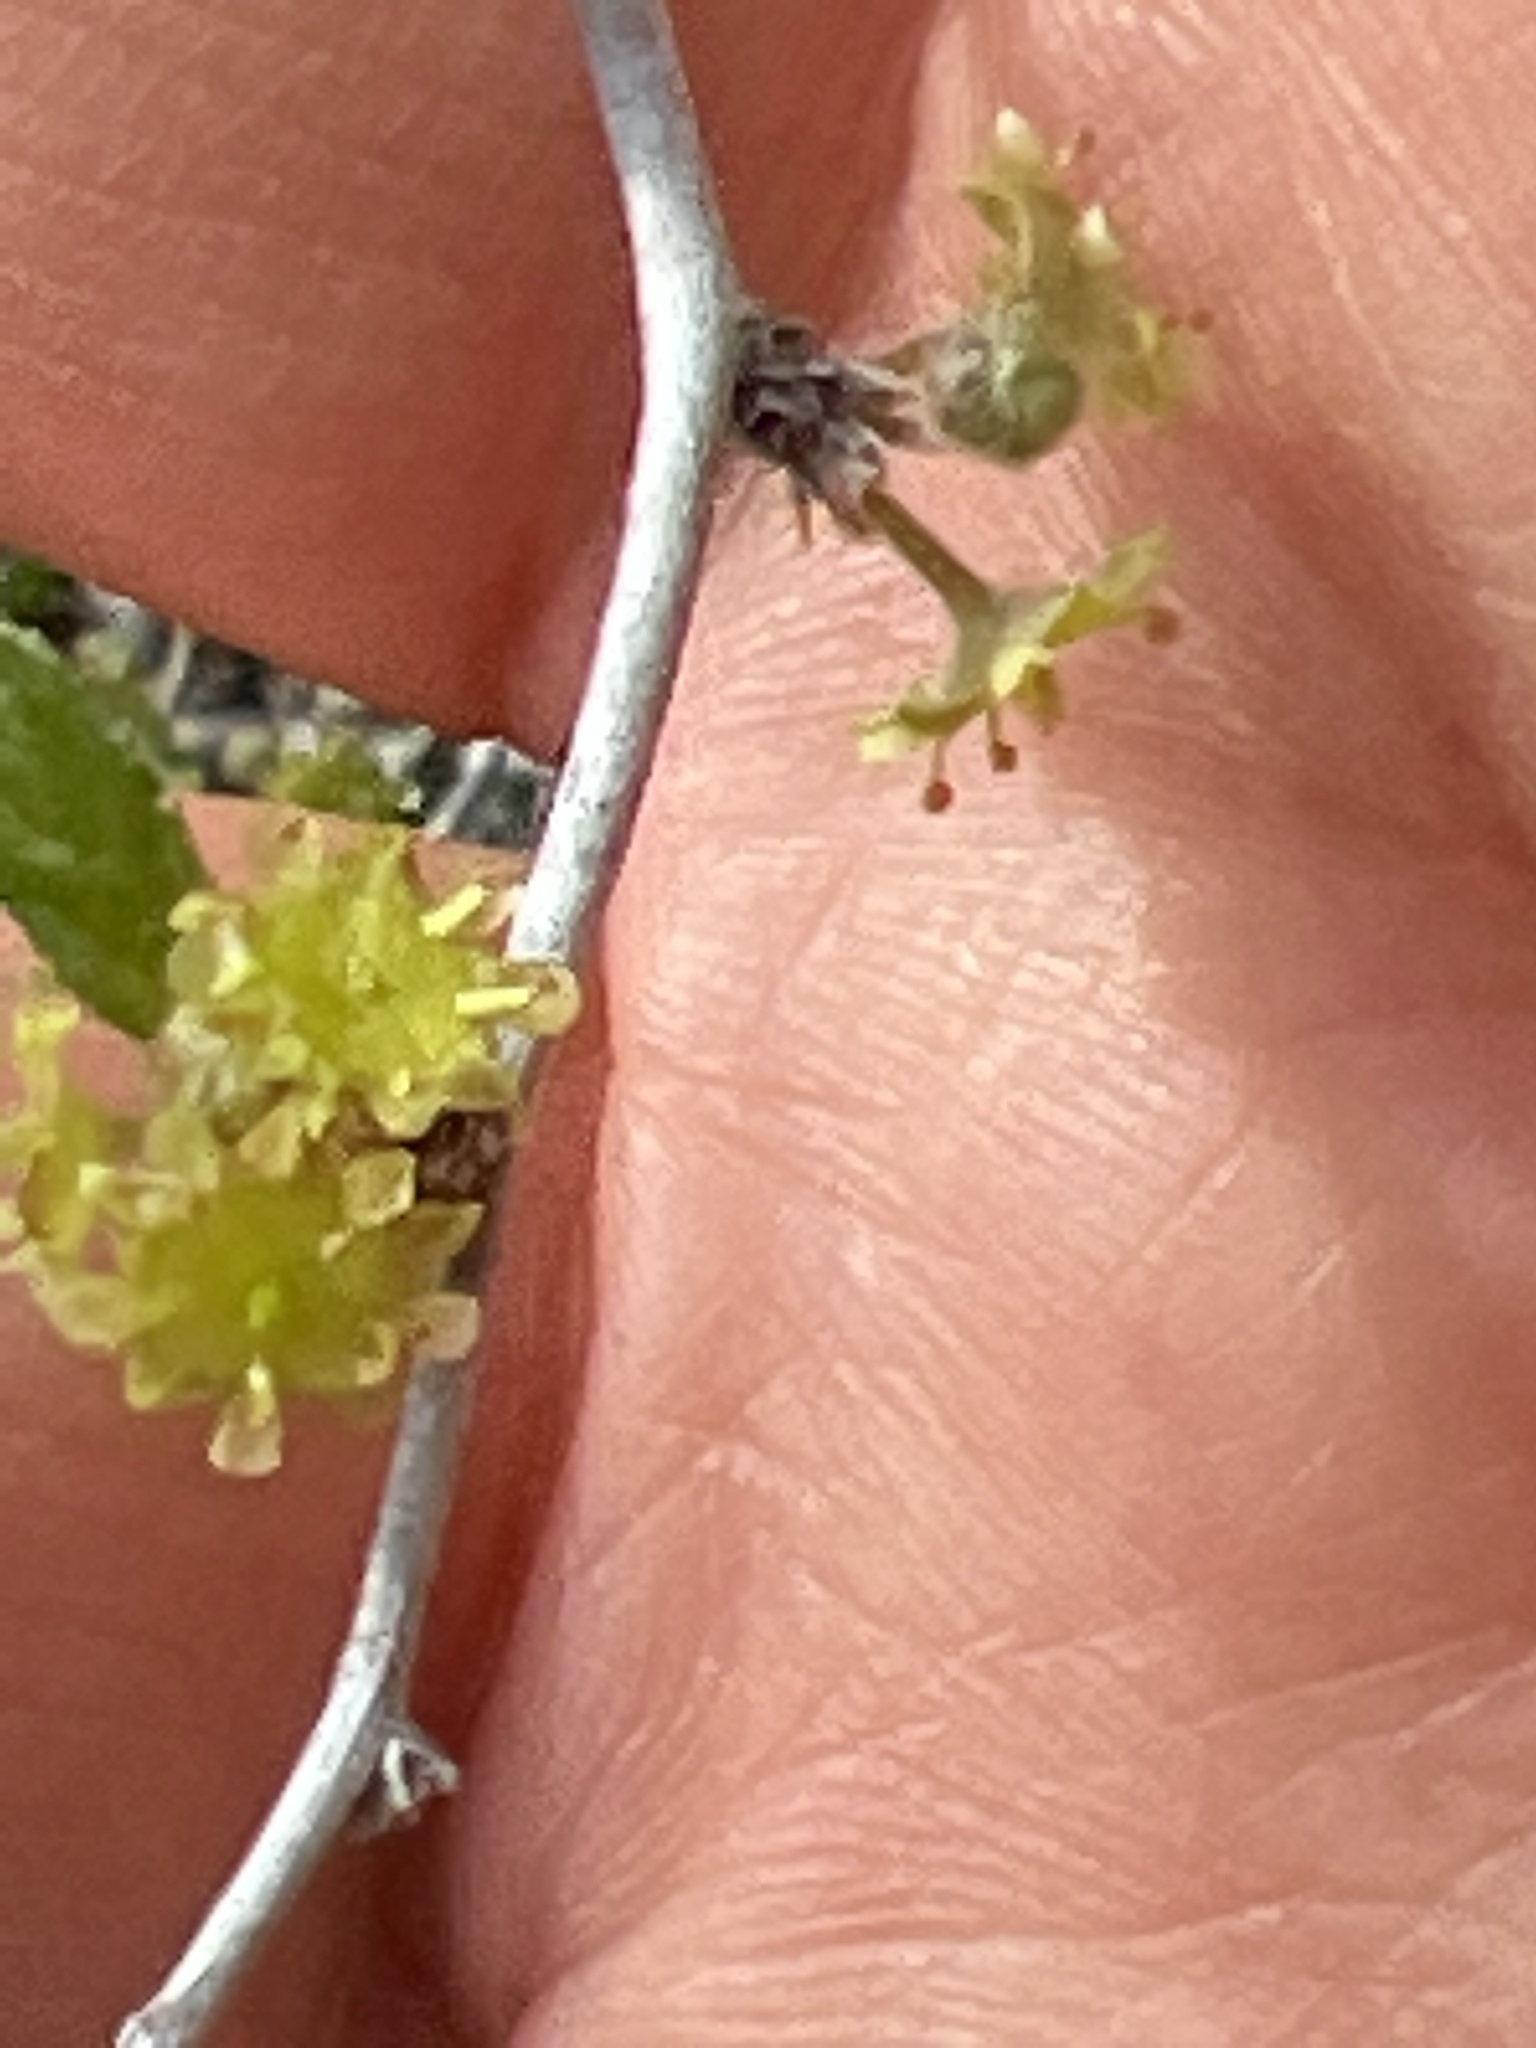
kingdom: Plantae
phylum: Tracheophyta
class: Magnoliopsida
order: Rosales
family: Rhamnaceae
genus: Colubrina
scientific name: Colubrina texensis
